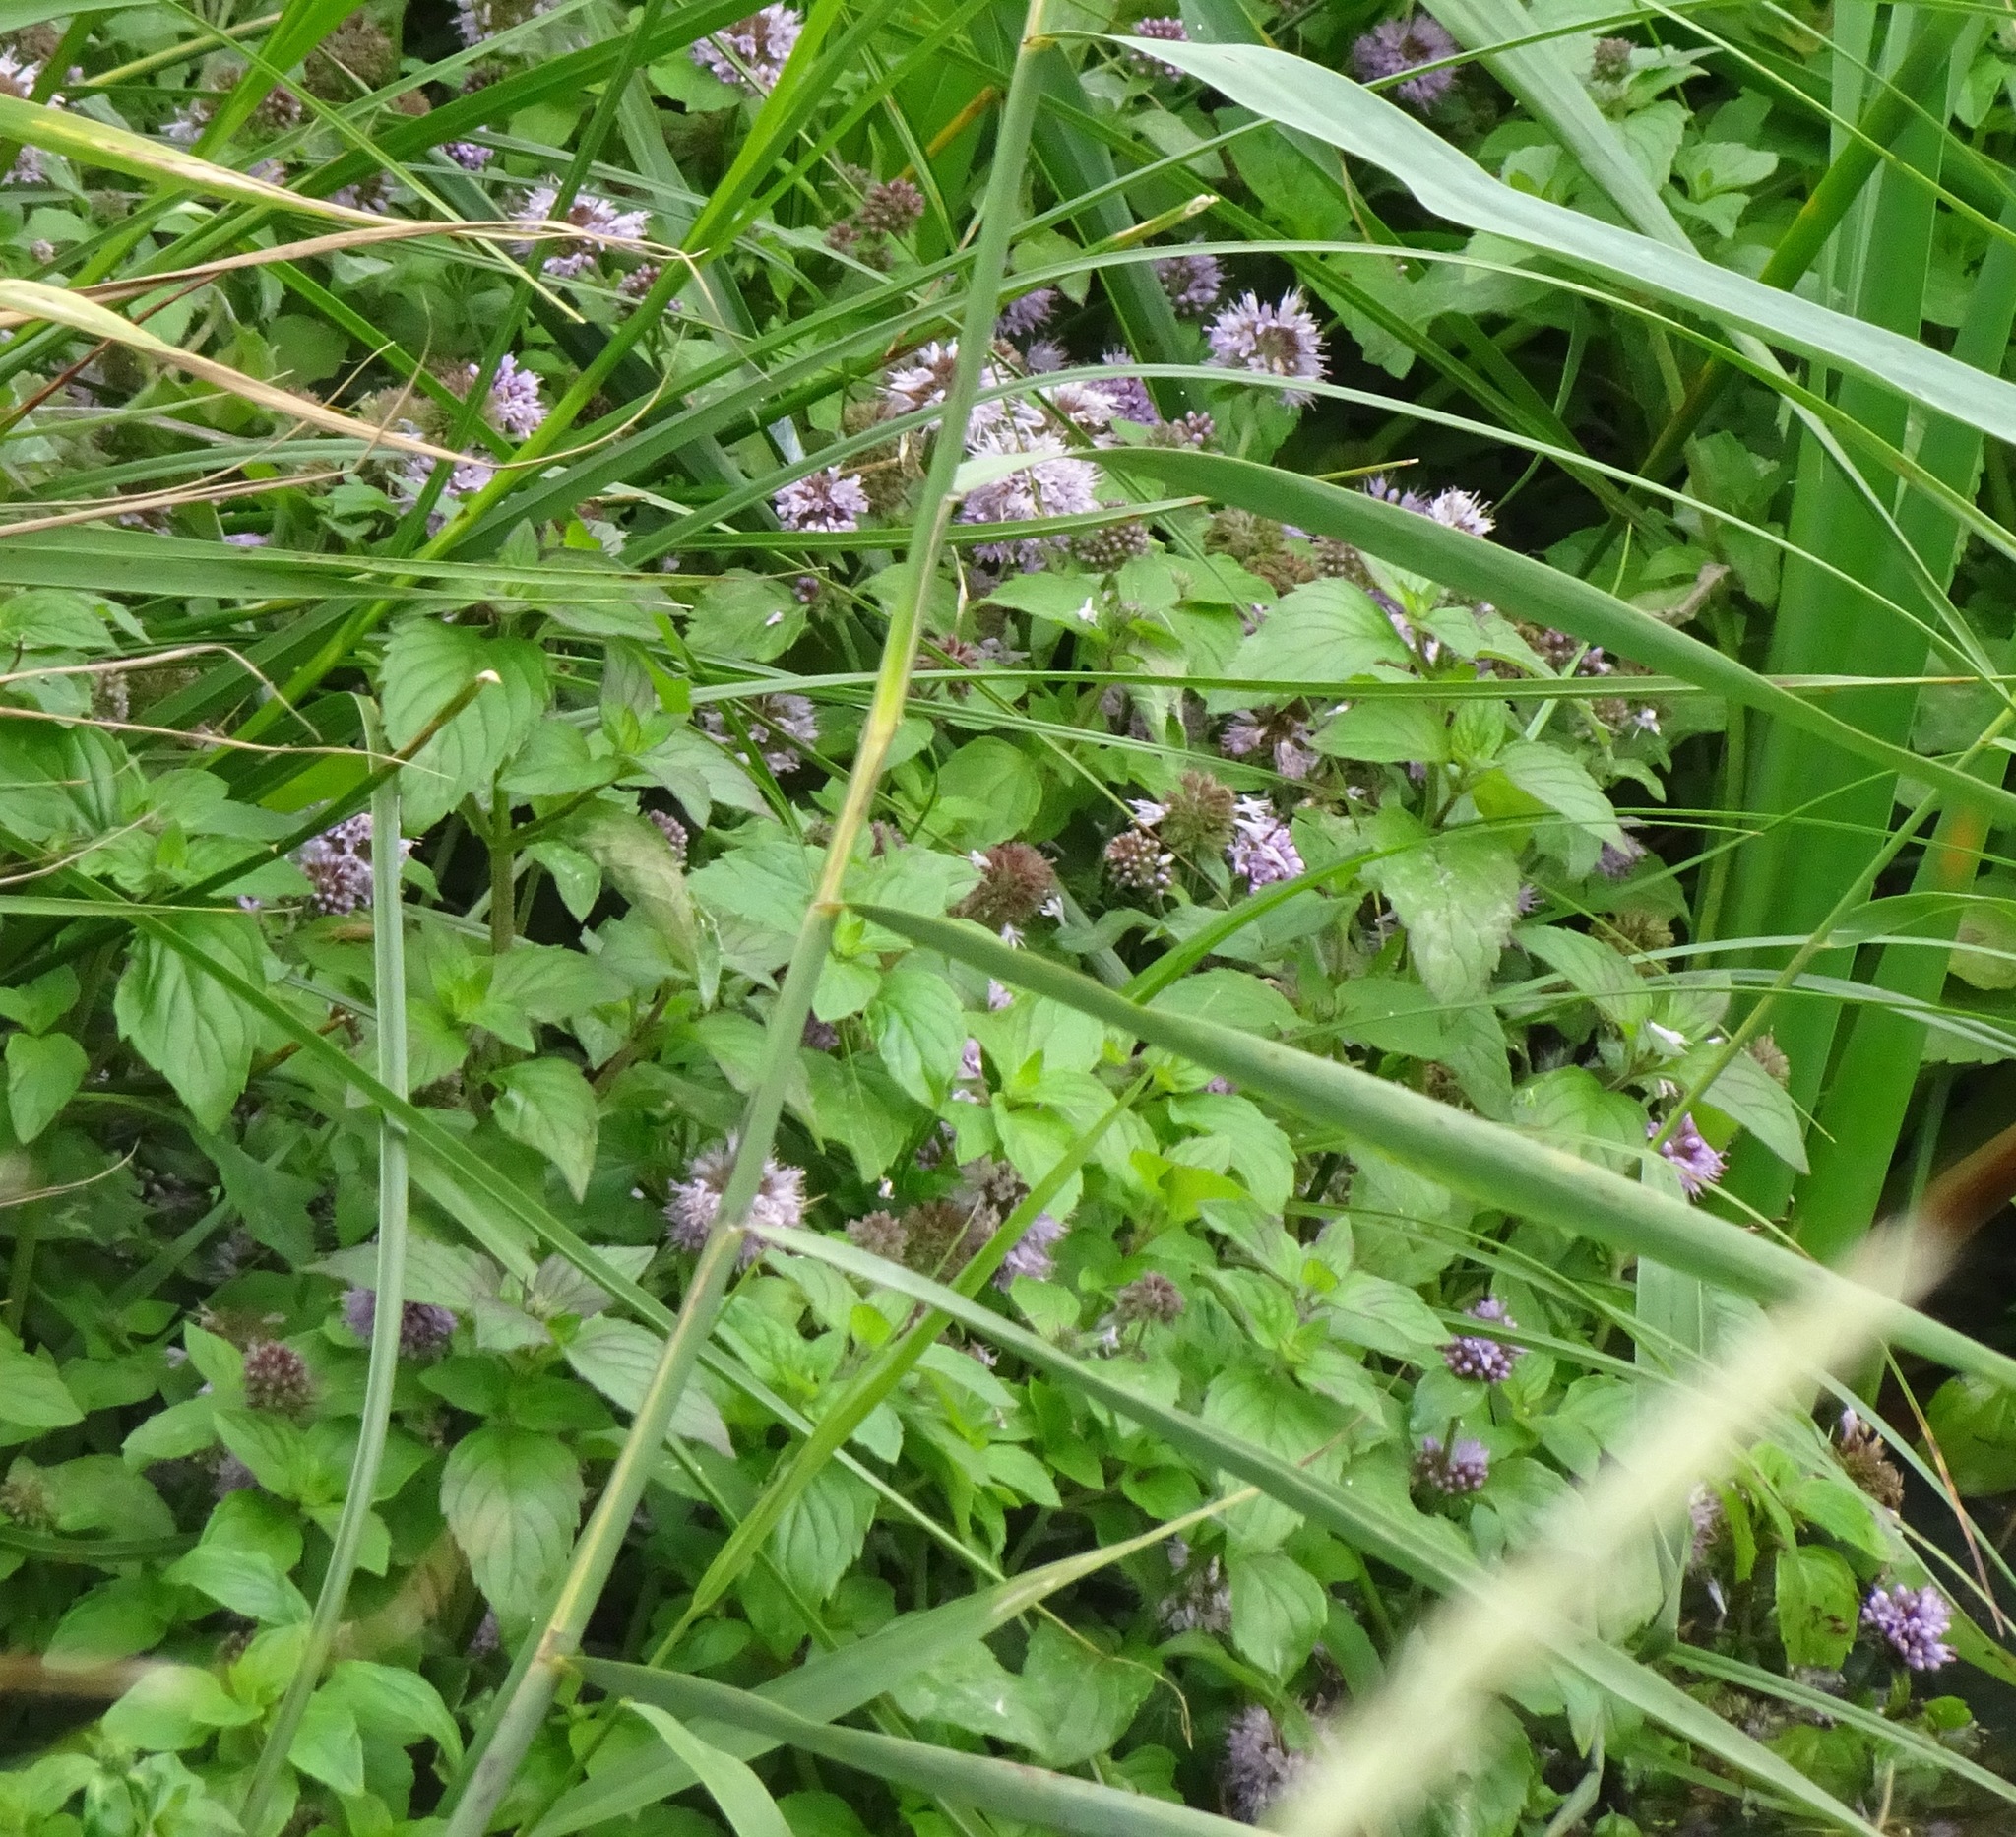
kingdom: Plantae
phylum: Tracheophyta
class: Magnoliopsida
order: Lamiales
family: Lamiaceae
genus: Mentha
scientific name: Mentha aquatica
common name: Water mint
